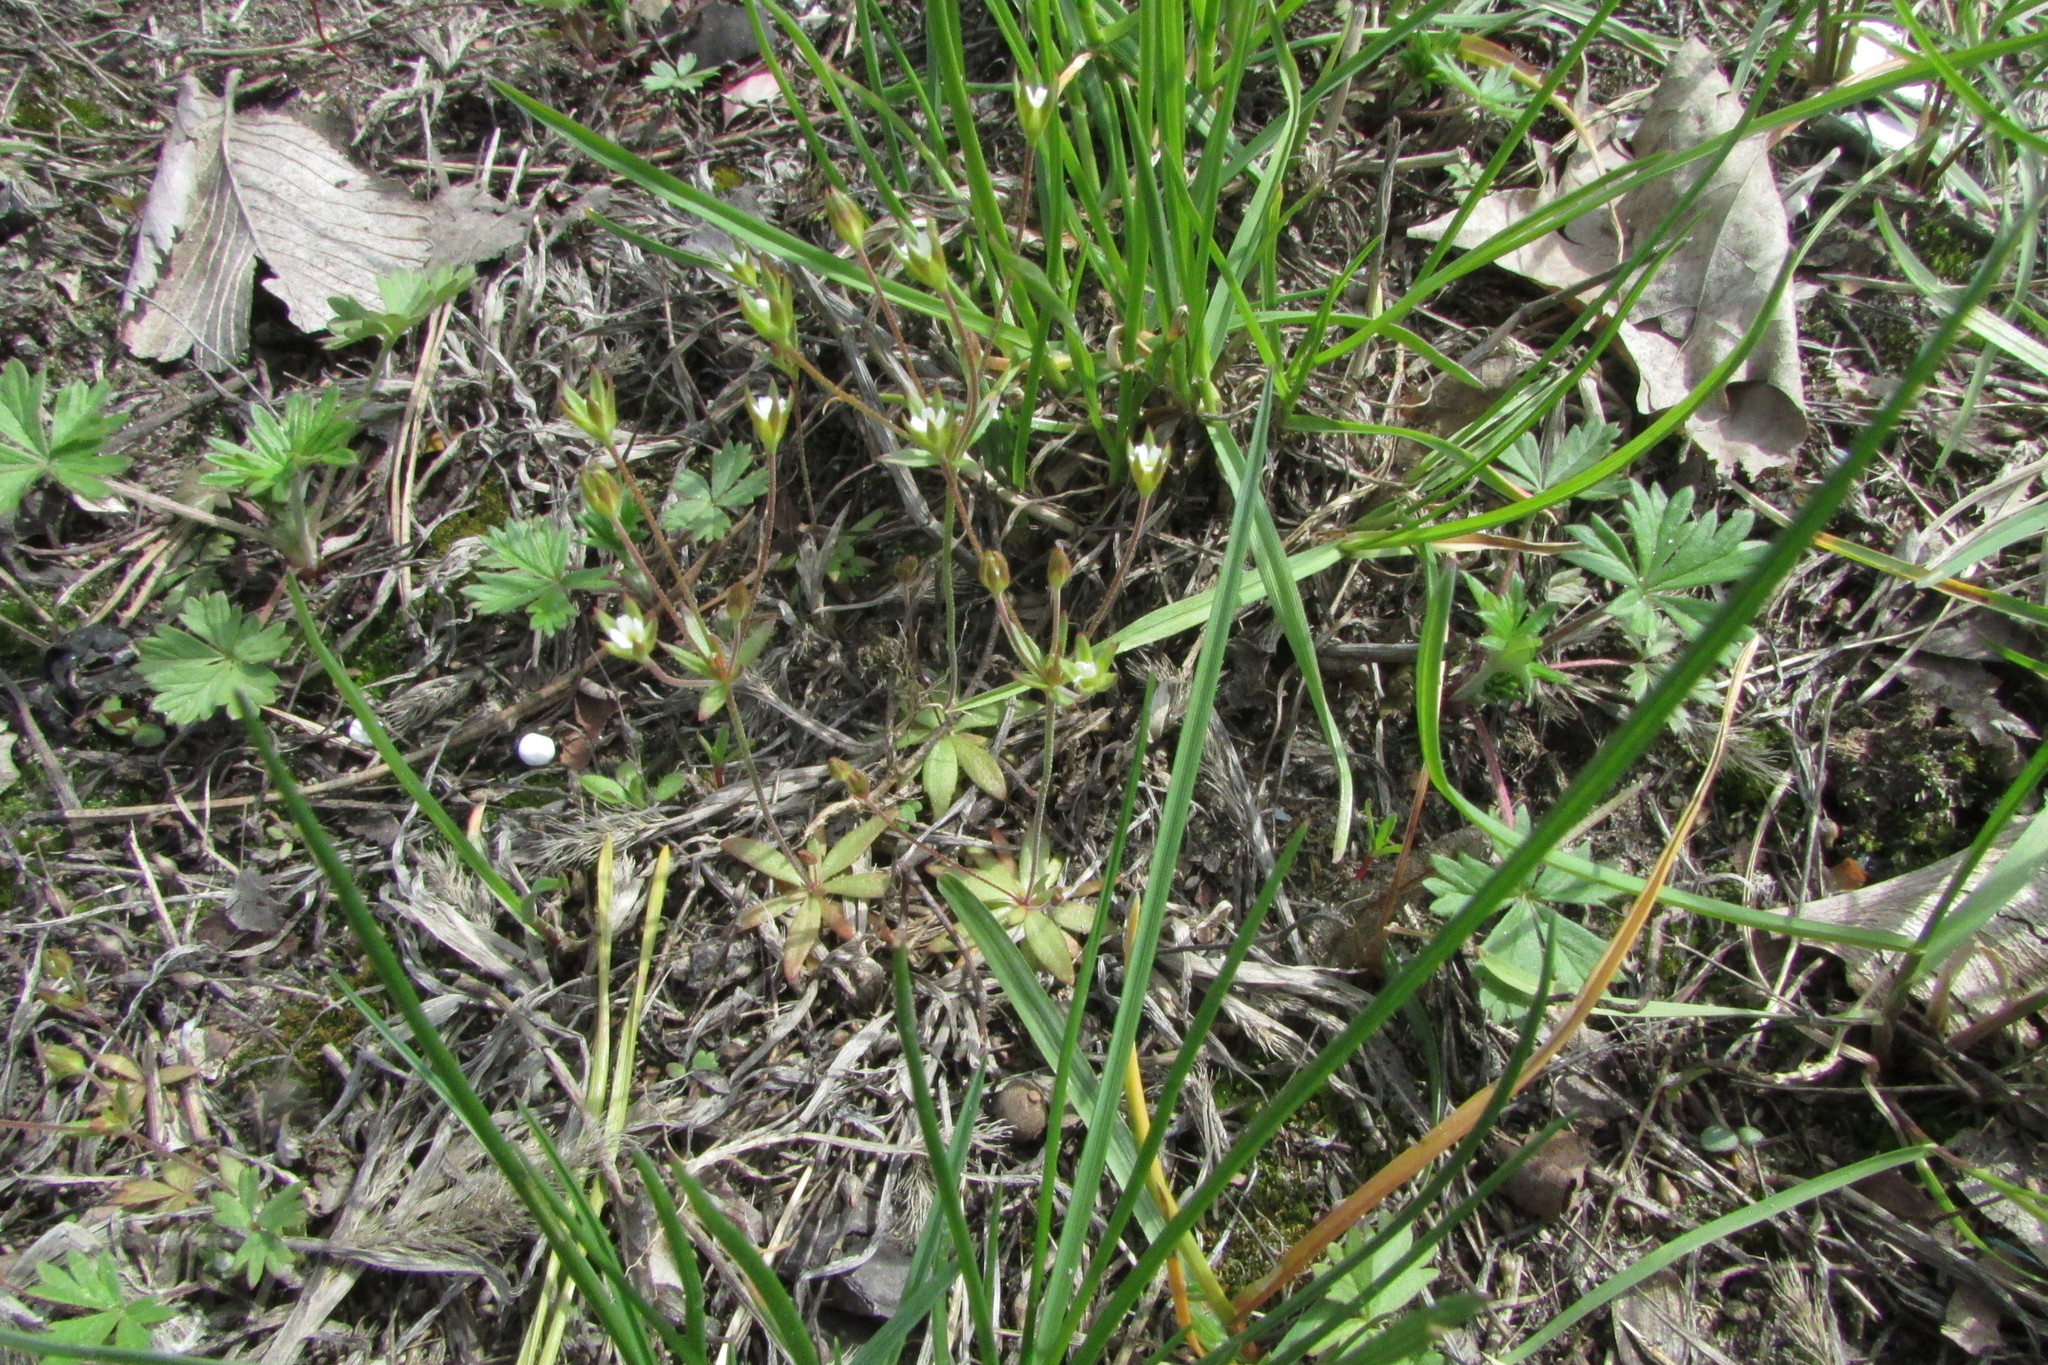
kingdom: Plantae
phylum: Tracheophyta
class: Magnoliopsida
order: Ericales
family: Primulaceae
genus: Androsace
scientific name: Androsace elongata
